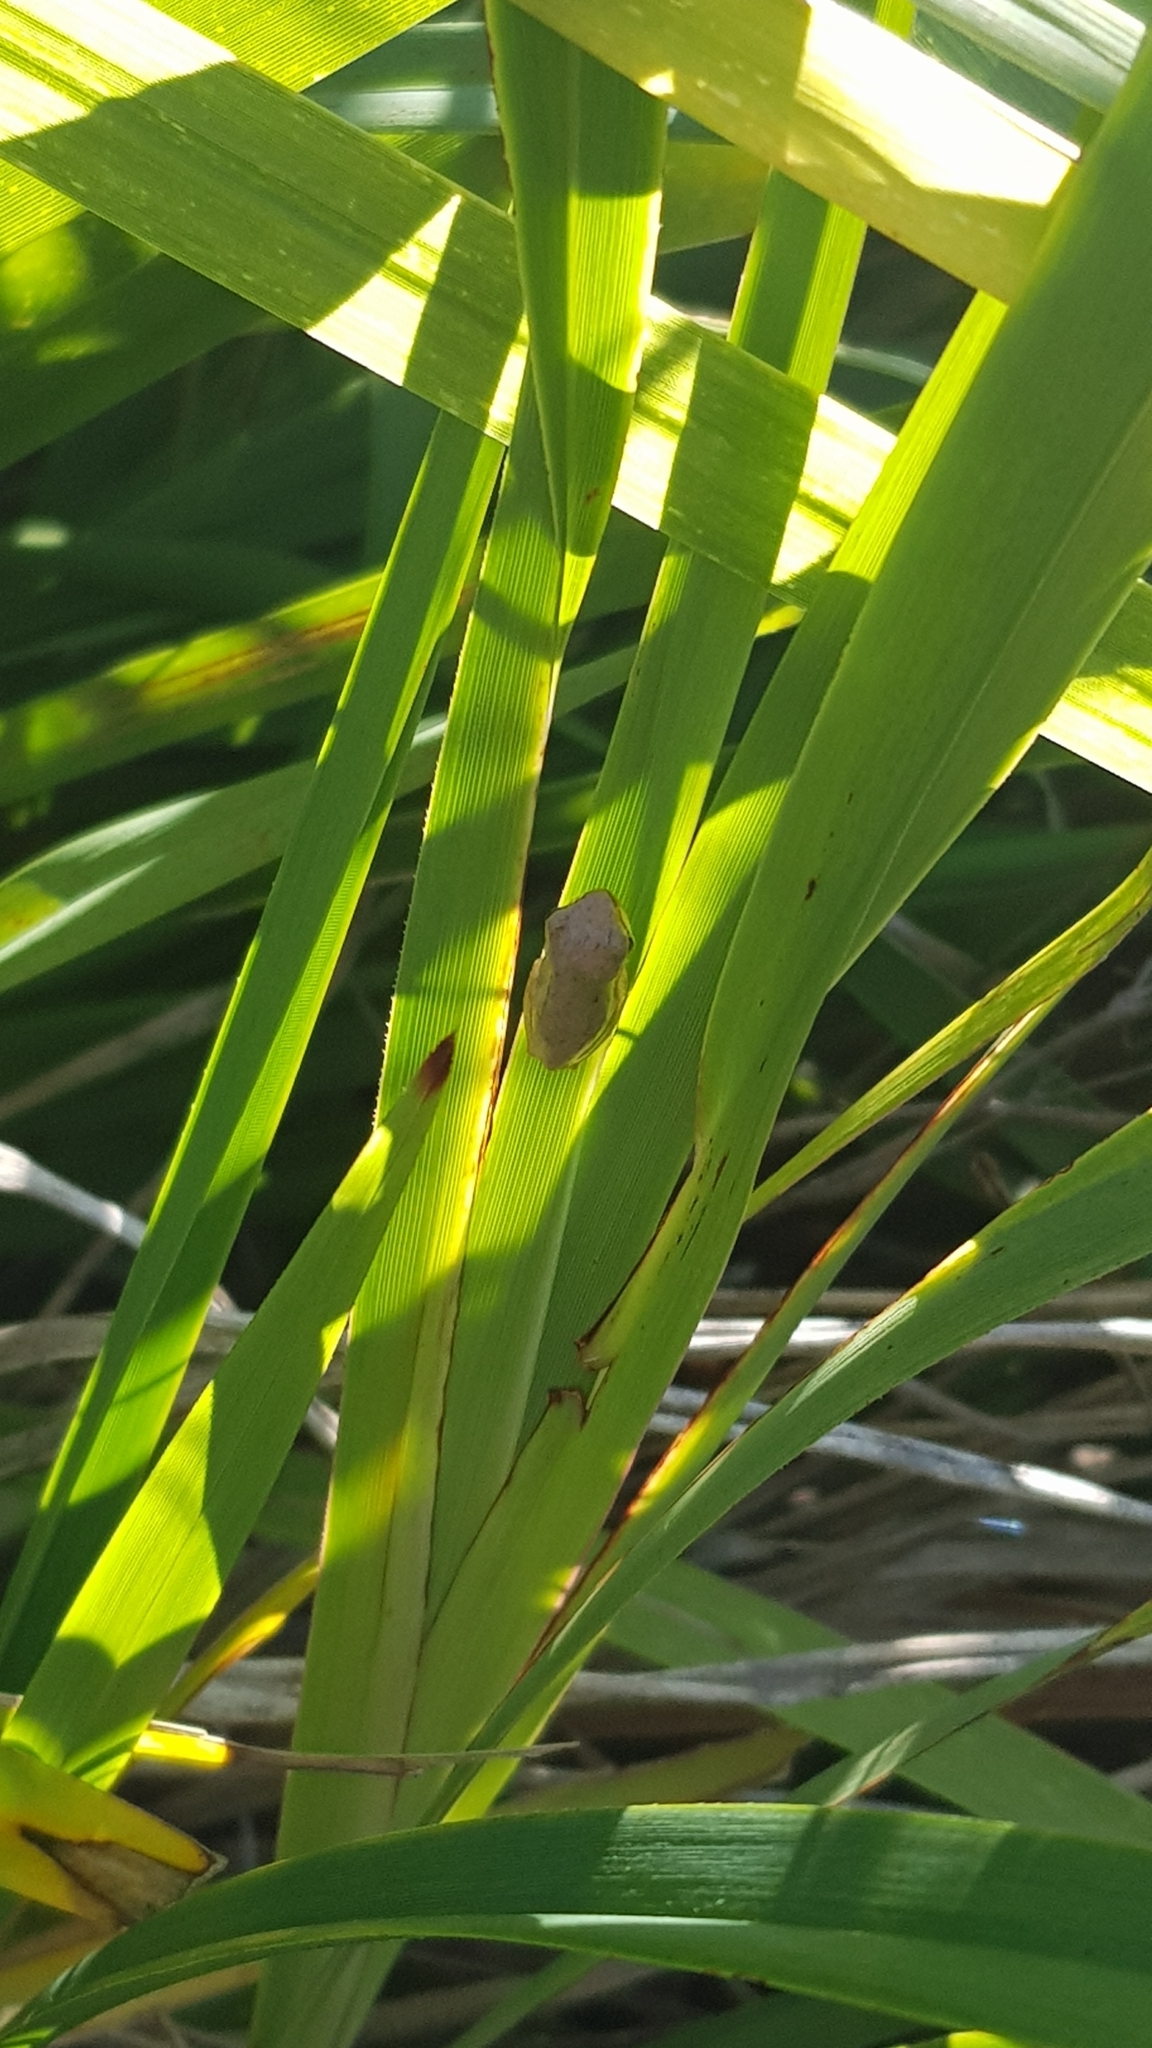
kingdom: Animalia
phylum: Chordata
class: Amphibia
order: Anura
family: Pelodryadidae
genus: Litoria
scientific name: Litoria fallax
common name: Eastern dwarf treefrog
